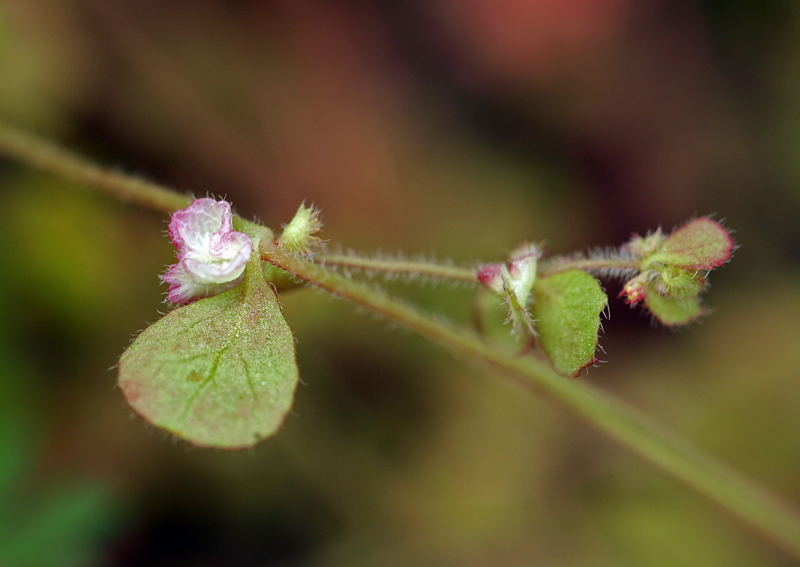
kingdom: Plantae
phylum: Tracheophyta
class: Magnoliopsida
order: Caryophyllales
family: Polygonaceae
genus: Pterostegia
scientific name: Pterostegia drymarioides
